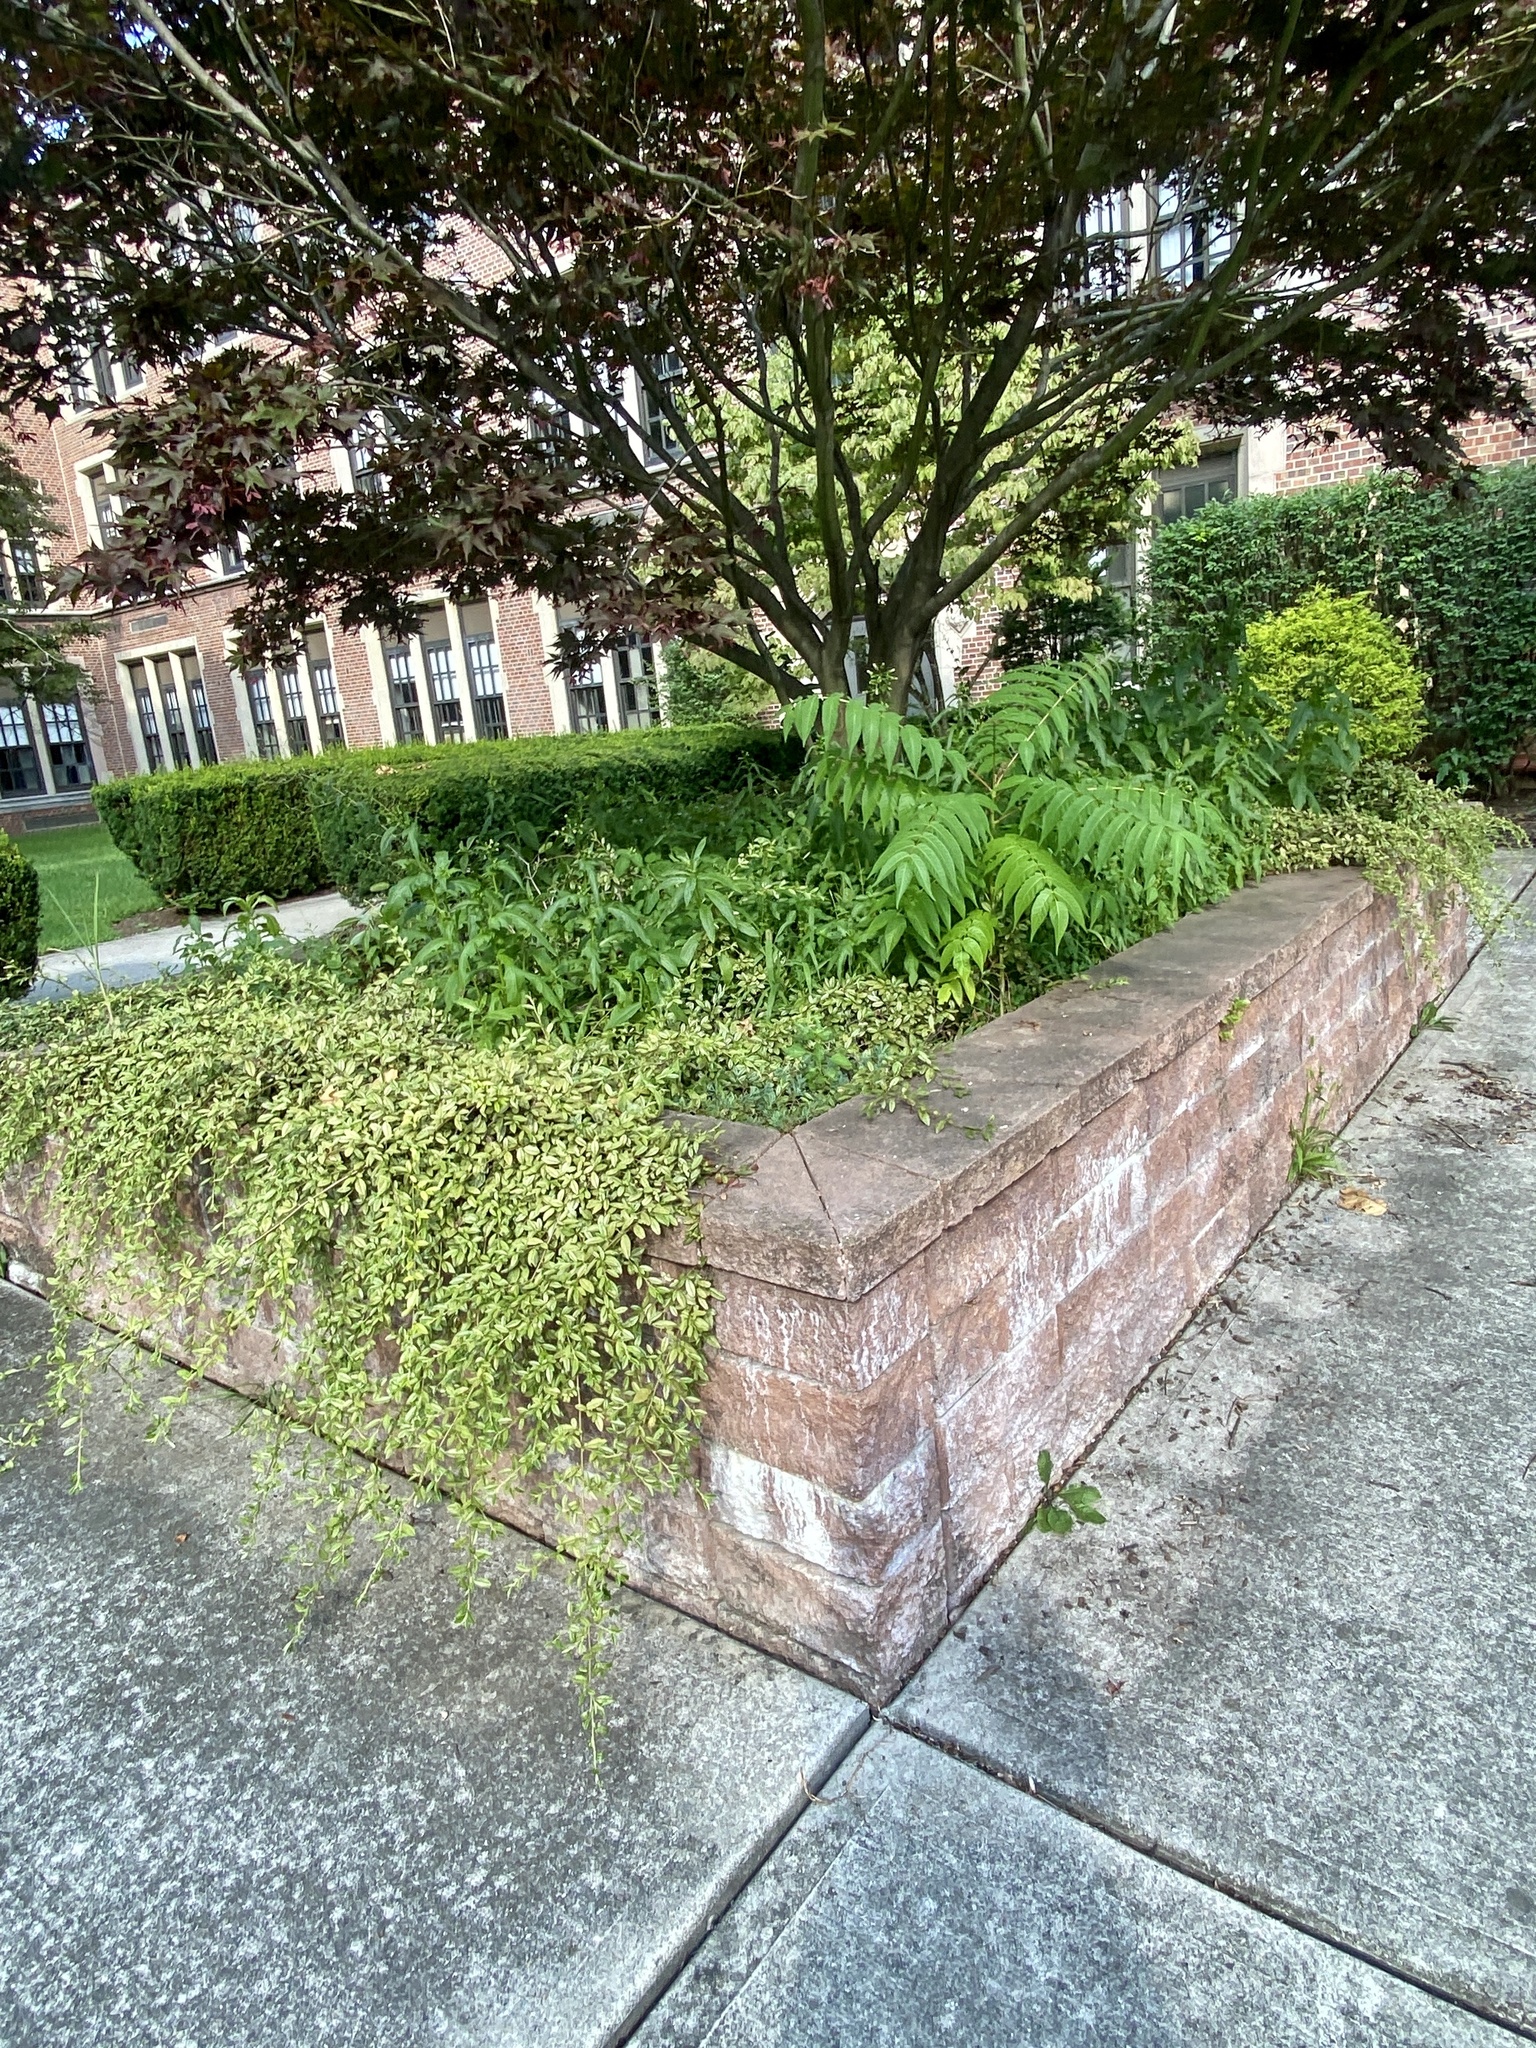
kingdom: Plantae
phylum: Tracheophyta
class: Magnoliopsida
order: Asterales
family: Asteraceae
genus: Erechtites
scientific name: Erechtites hieraciifolius
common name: American burnweed
